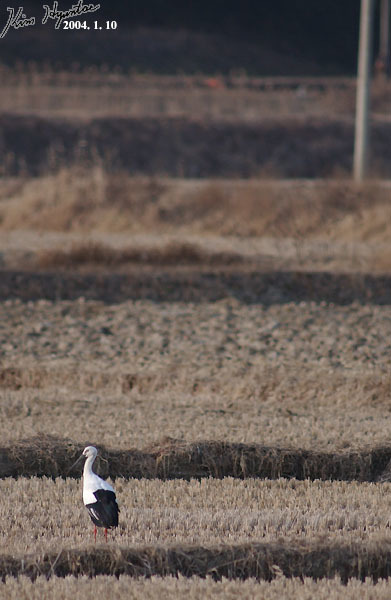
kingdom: Animalia
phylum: Chordata
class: Aves
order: Ciconiiformes
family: Ciconiidae
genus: Ciconia
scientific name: Ciconia boyciana
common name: Oriental stork
